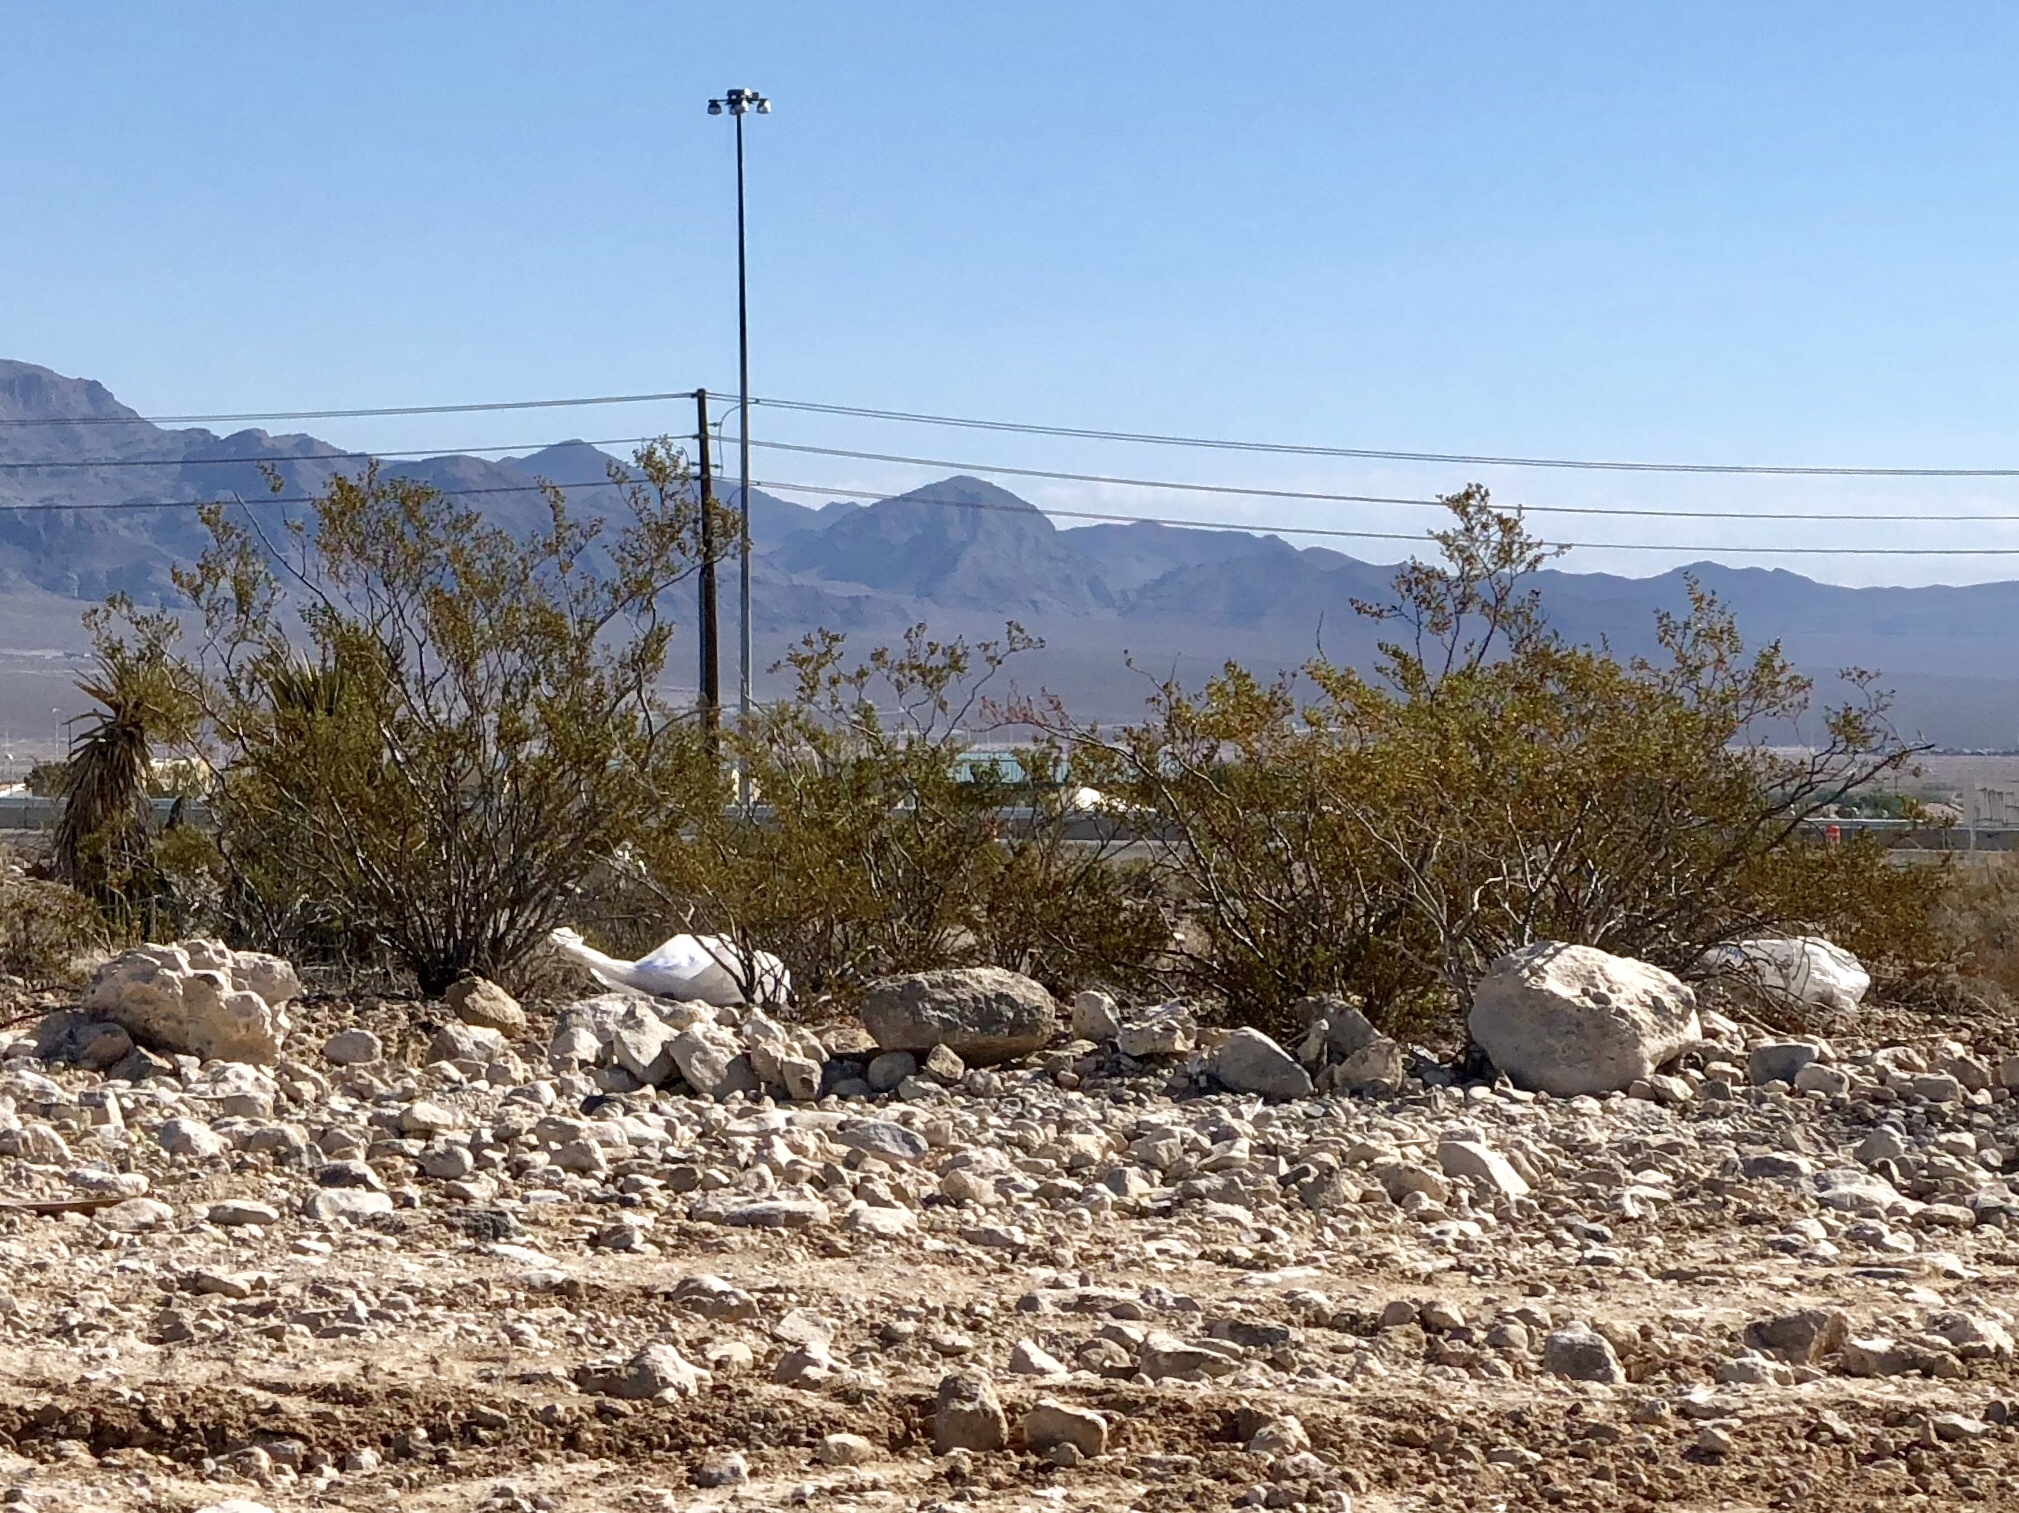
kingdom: Plantae
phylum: Tracheophyta
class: Magnoliopsida
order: Zygophyllales
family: Zygophyllaceae
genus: Larrea
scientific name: Larrea tridentata
